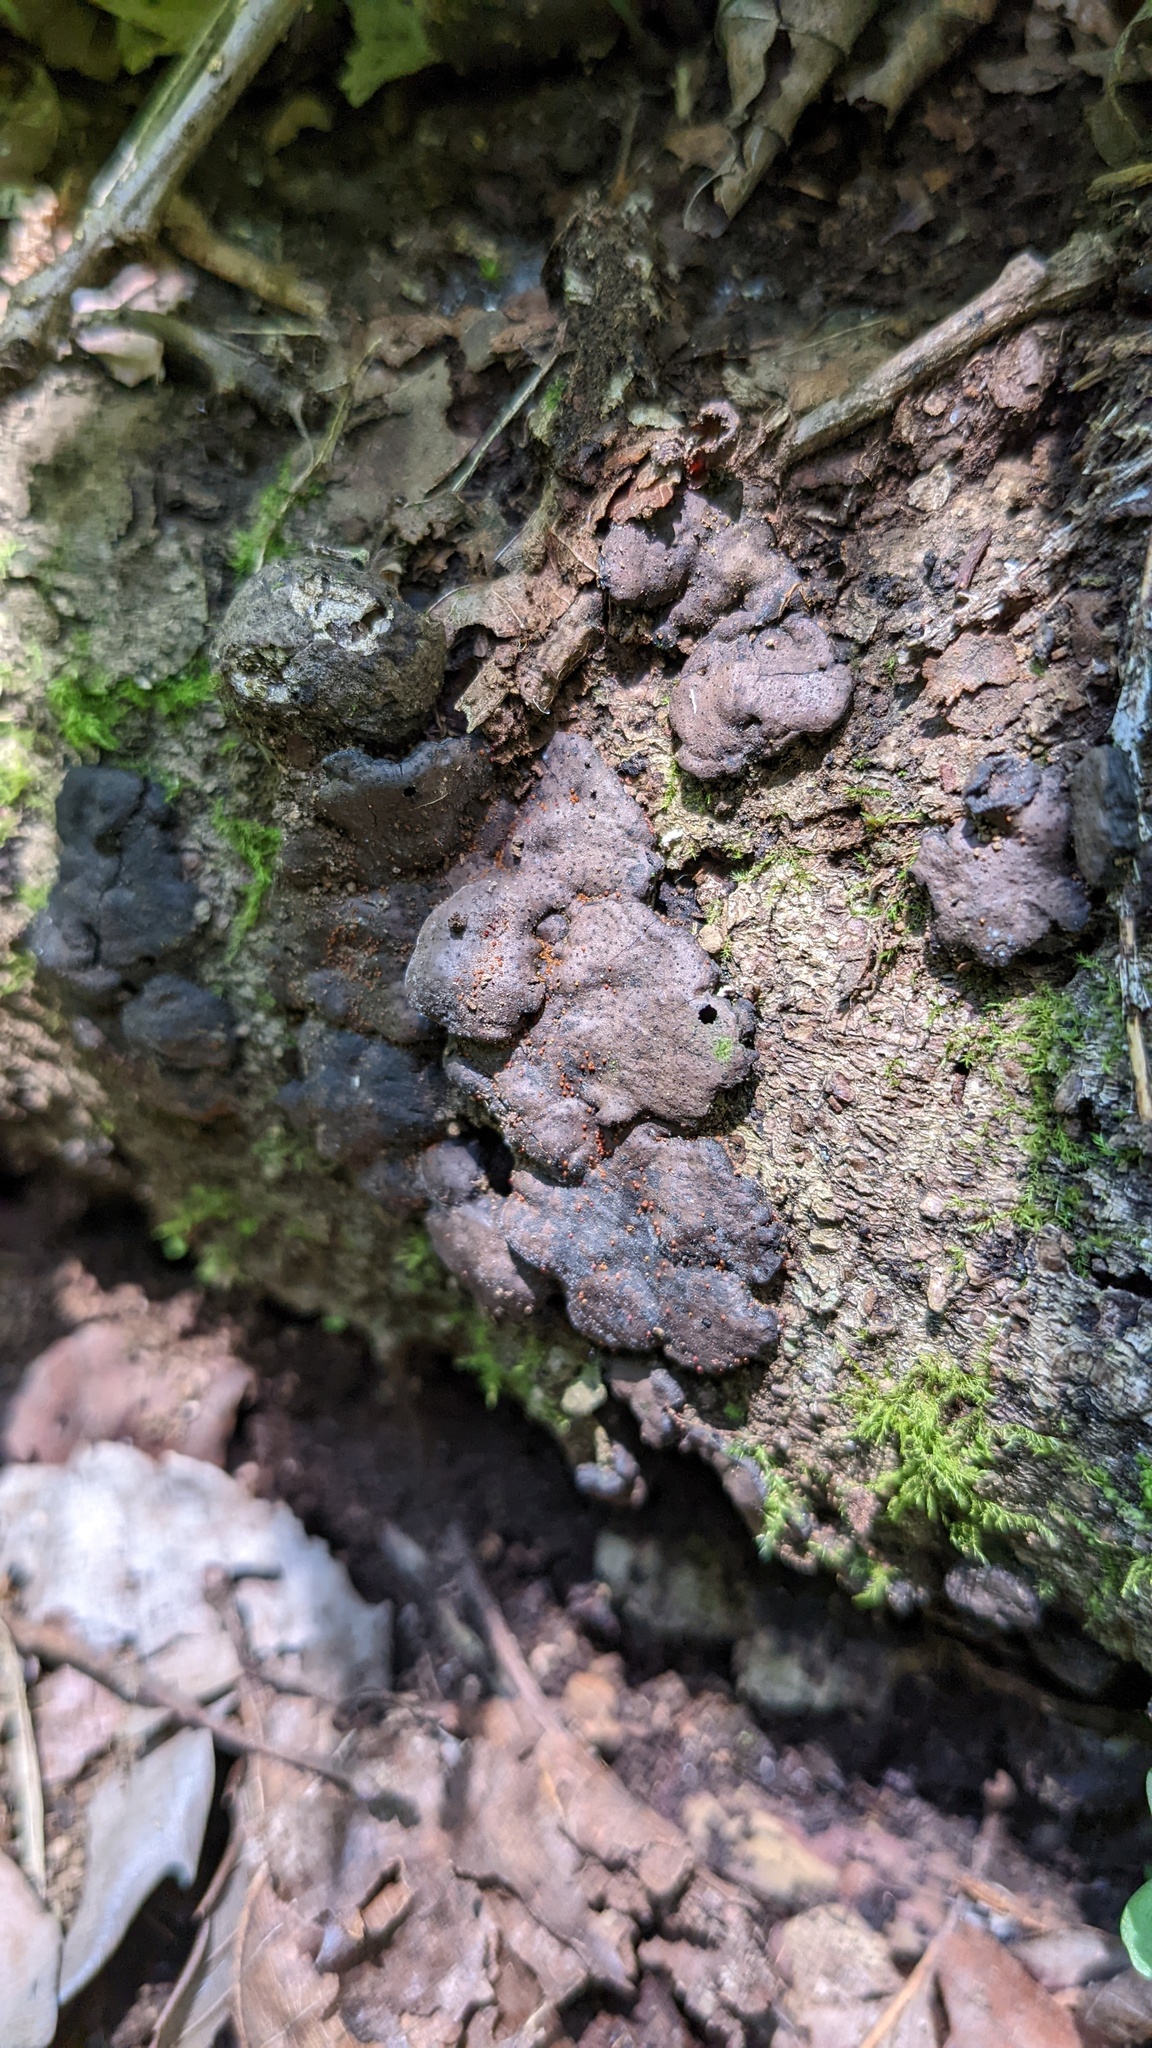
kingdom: Fungi
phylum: Ascomycota
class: Sordariomycetes
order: Xylariales
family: Xylariaceae
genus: Kretzschmaria
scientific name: Kretzschmaria deusta
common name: Brittle cinder
